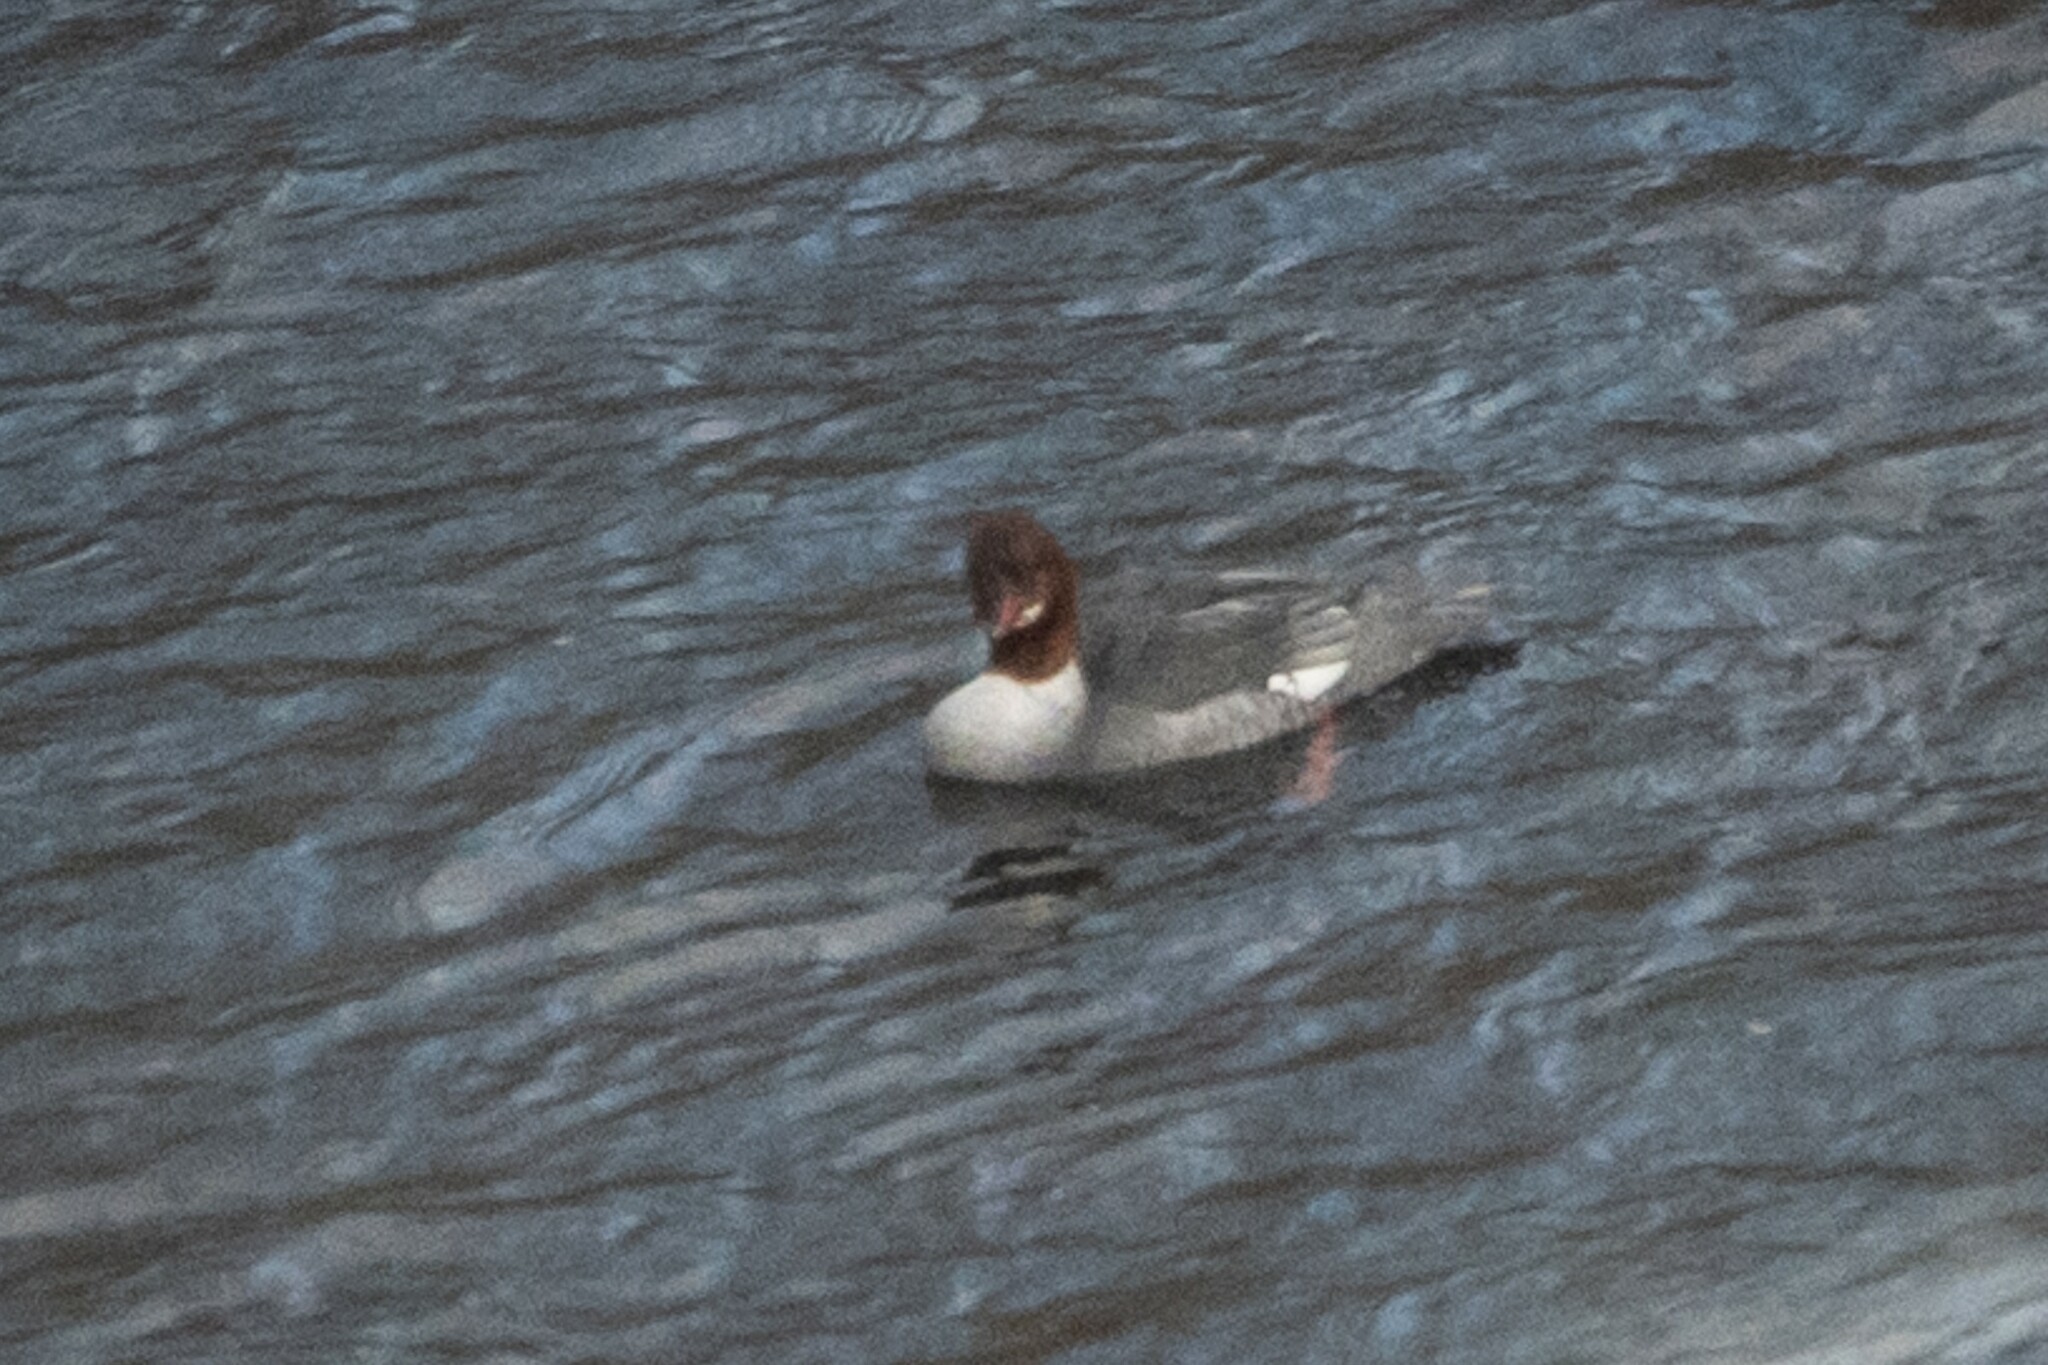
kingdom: Animalia
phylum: Chordata
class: Aves
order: Anseriformes
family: Anatidae
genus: Mergus
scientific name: Mergus merganser
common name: Common merganser
